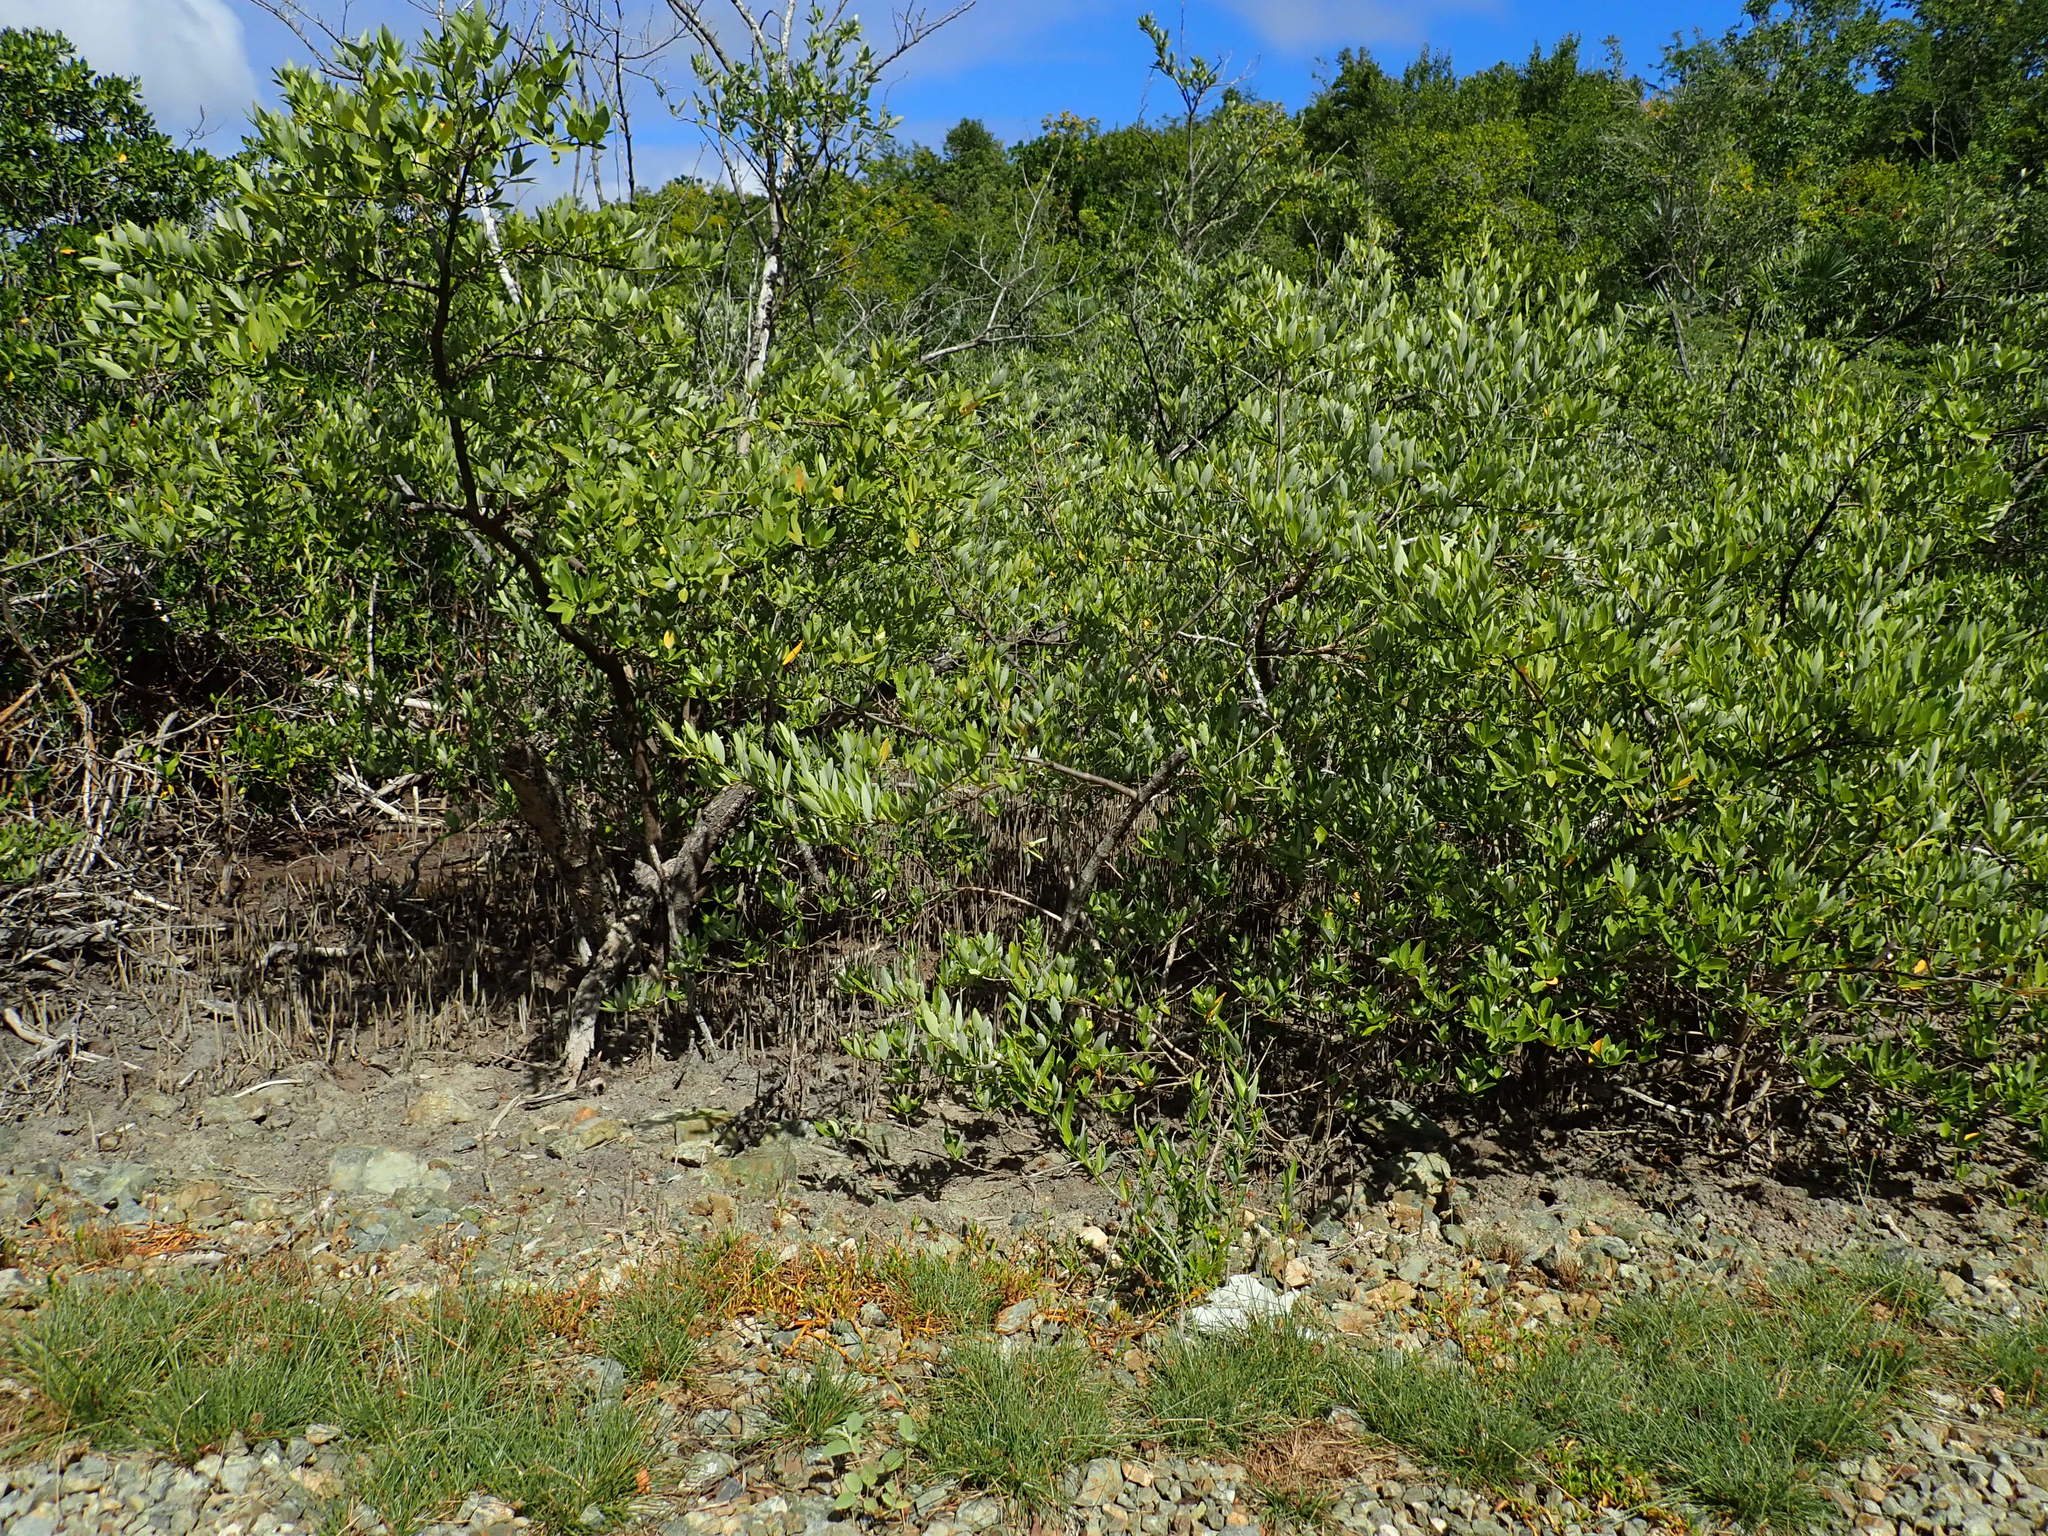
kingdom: Plantae
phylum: Tracheophyta
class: Magnoliopsida
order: Lamiales
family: Acanthaceae
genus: Avicennia
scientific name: Avicennia germinans
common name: Black mangrove
